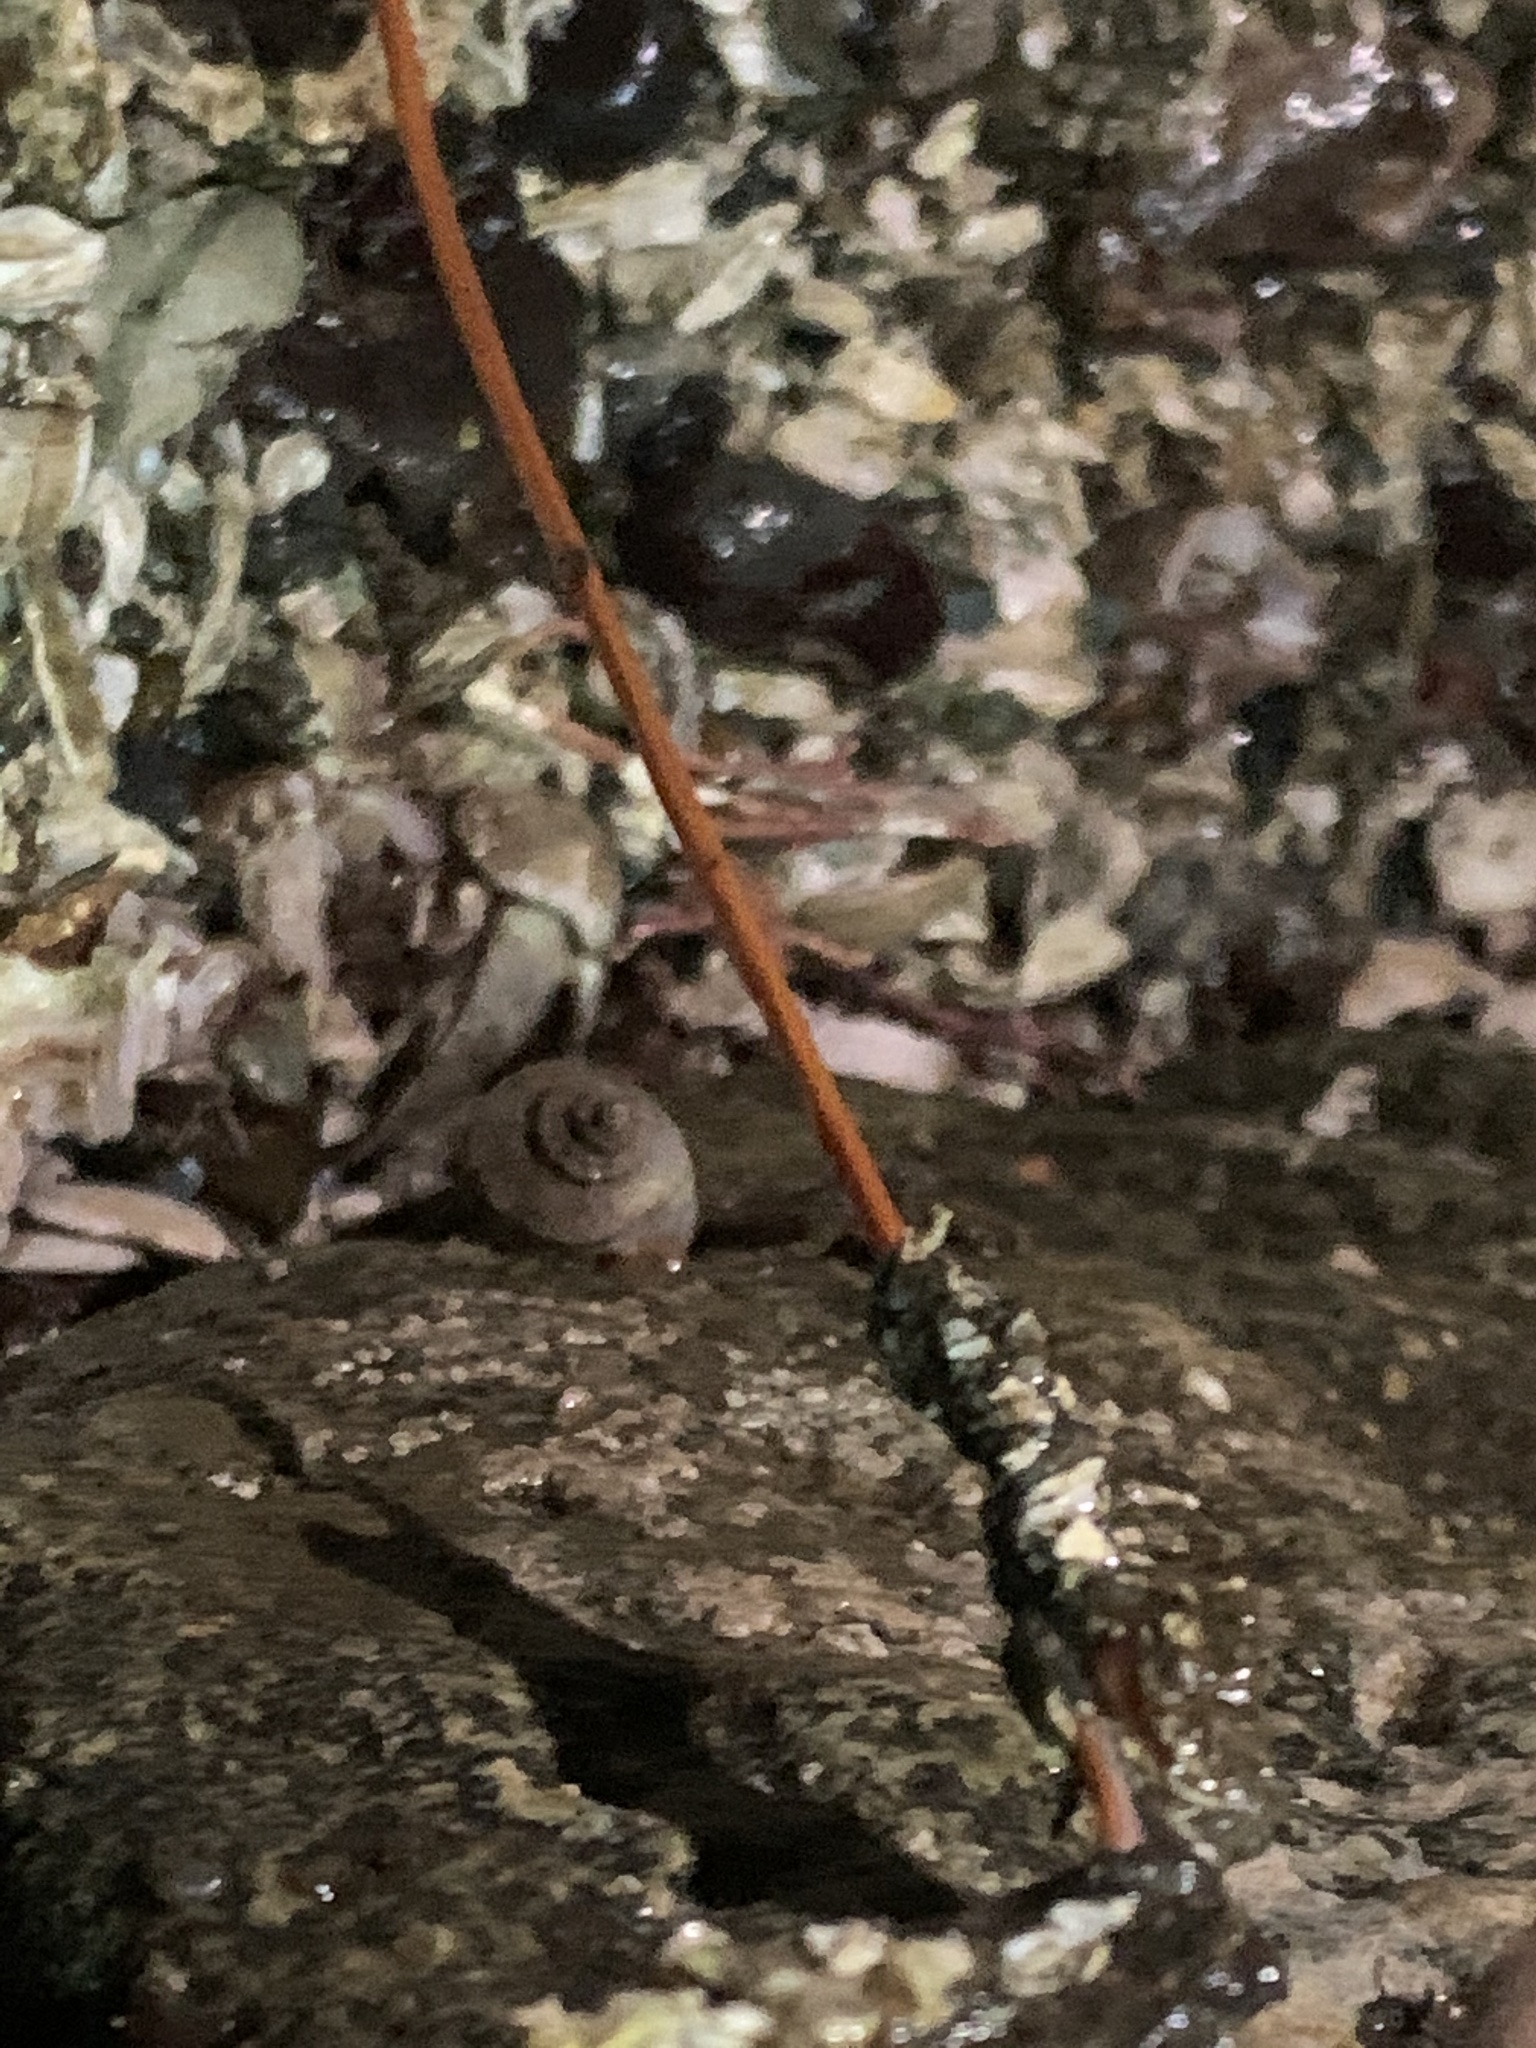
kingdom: Animalia
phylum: Nemertea
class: Palaeonemertea
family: Tubulanidae
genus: Tubulanus
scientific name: Tubulanus polymorphus
